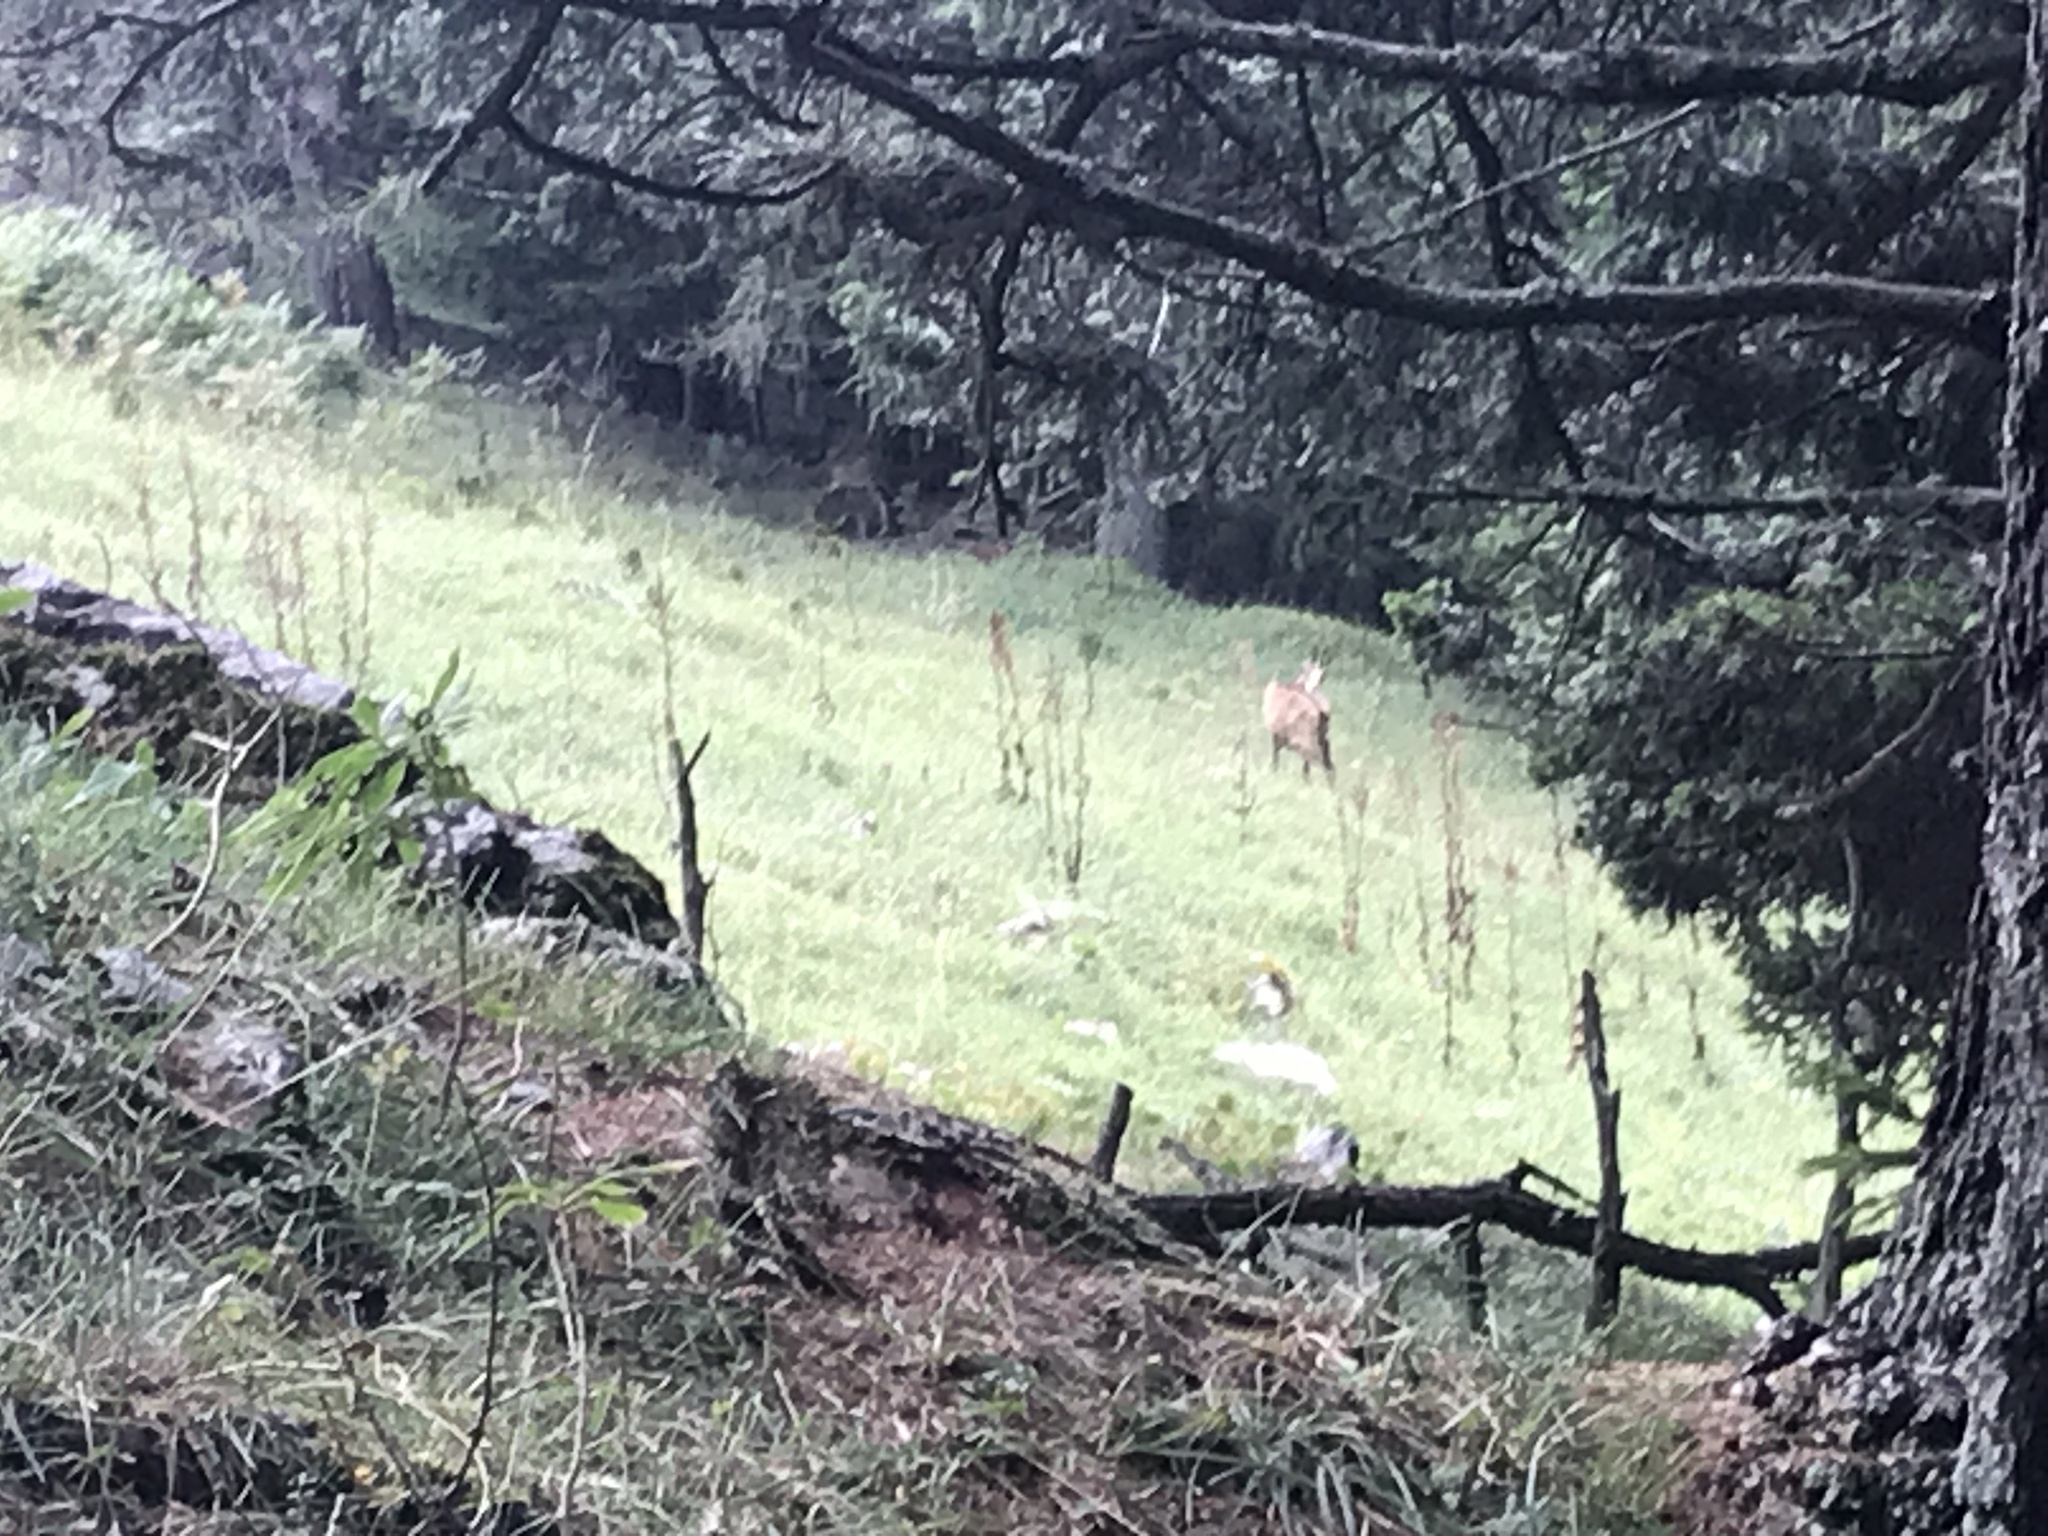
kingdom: Animalia
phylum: Chordata
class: Mammalia
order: Artiodactyla
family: Bovidae
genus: Rupicapra
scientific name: Rupicapra rupicapra
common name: Chamois
